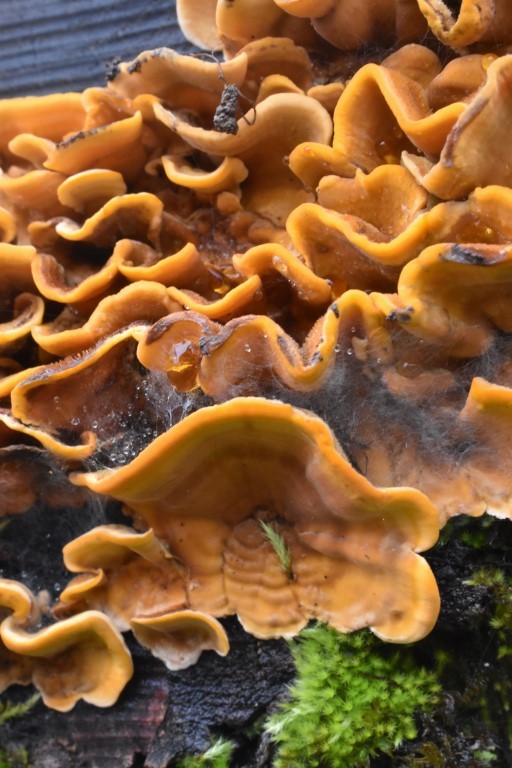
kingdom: Fungi
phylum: Basidiomycota
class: Agaricomycetes
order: Russulales
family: Stereaceae
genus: Stereum
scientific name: Stereum hirsutum
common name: Hairy curtain crust
